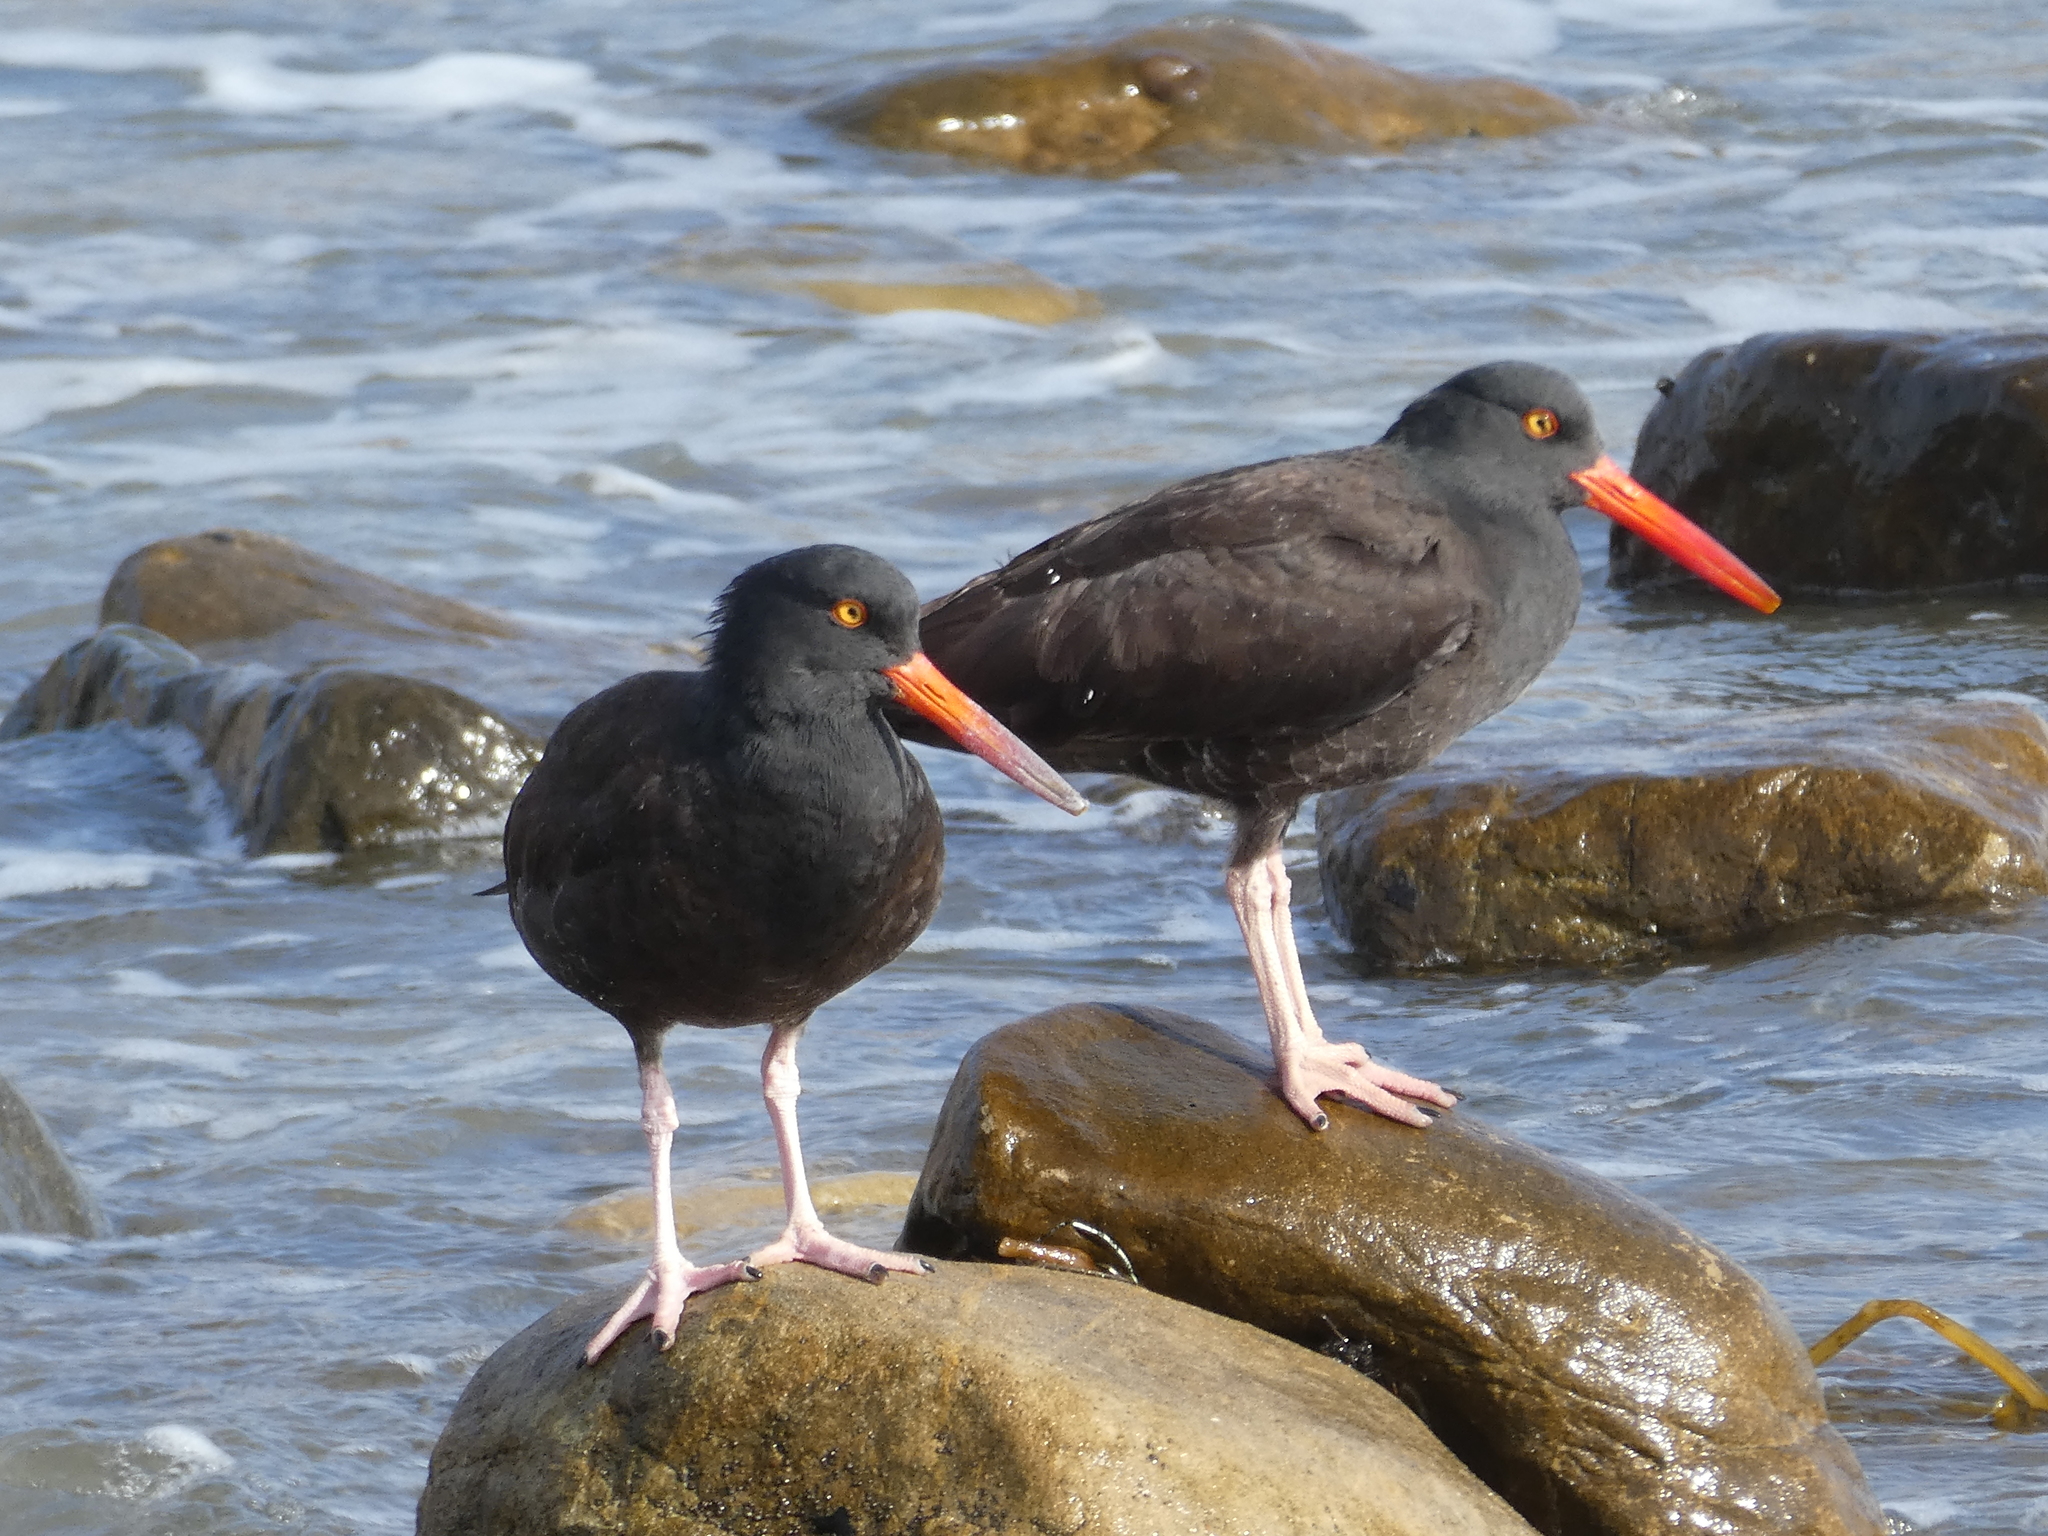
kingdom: Animalia
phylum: Chordata
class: Aves
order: Charadriiformes
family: Haematopodidae
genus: Haematopus
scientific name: Haematopus bachmani
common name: Black oystercatcher
